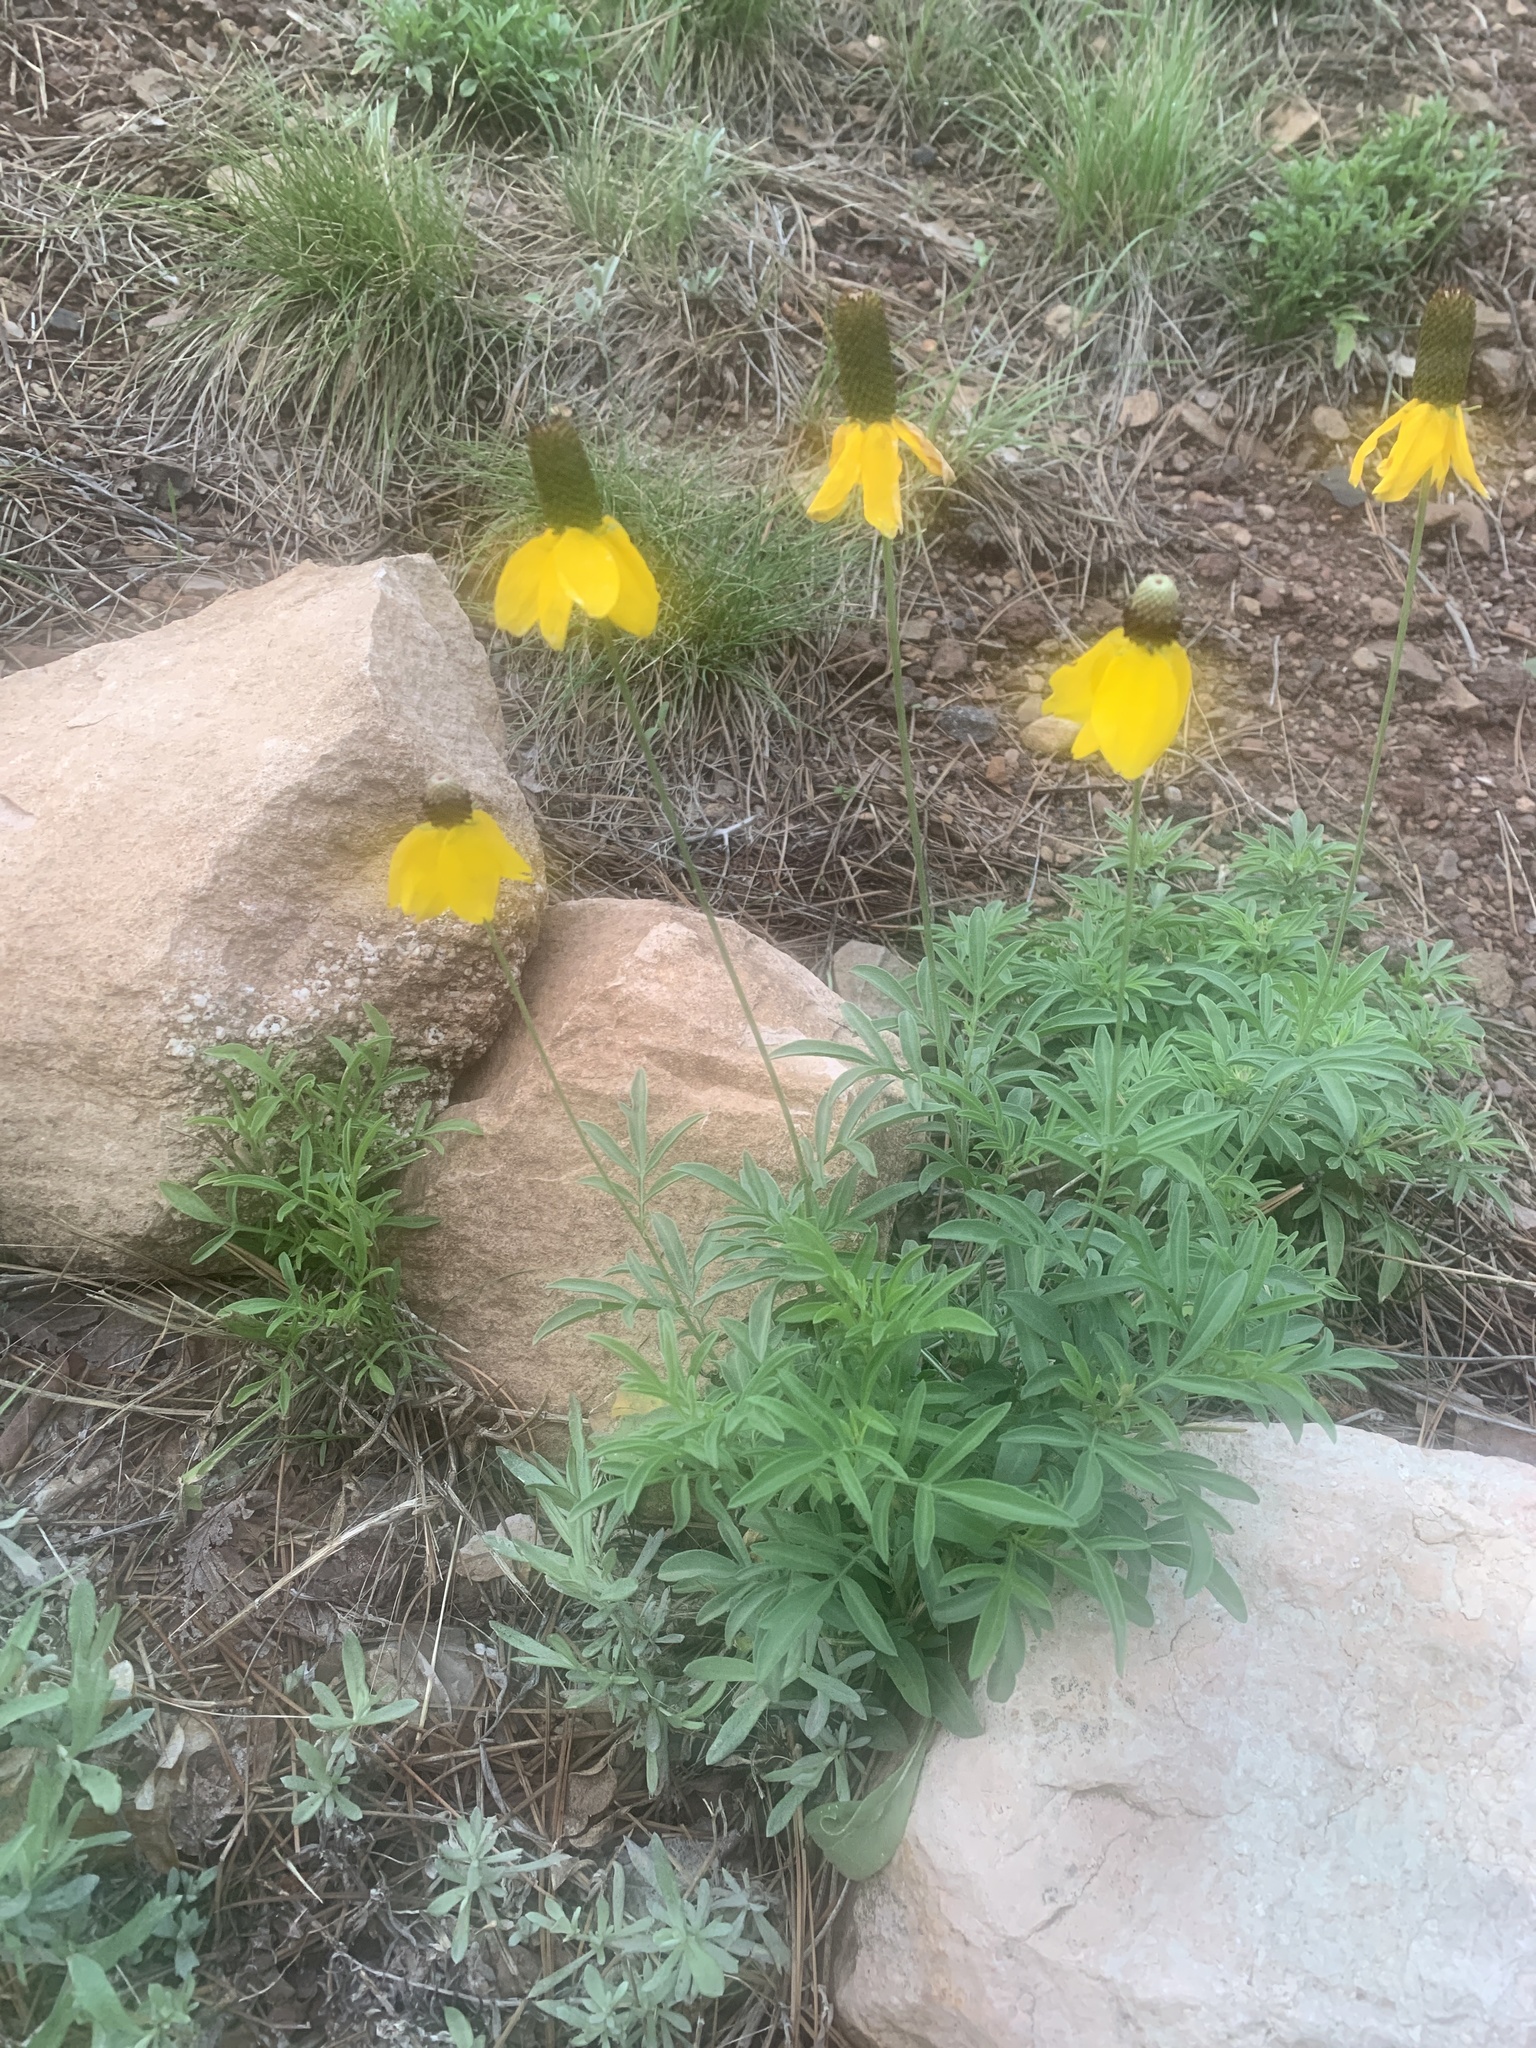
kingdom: Plantae
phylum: Tracheophyta
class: Magnoliopsida
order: Asterales
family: Asteraceae
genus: Ratibida
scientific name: Ratibida columnifera
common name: Prairie coneflower
